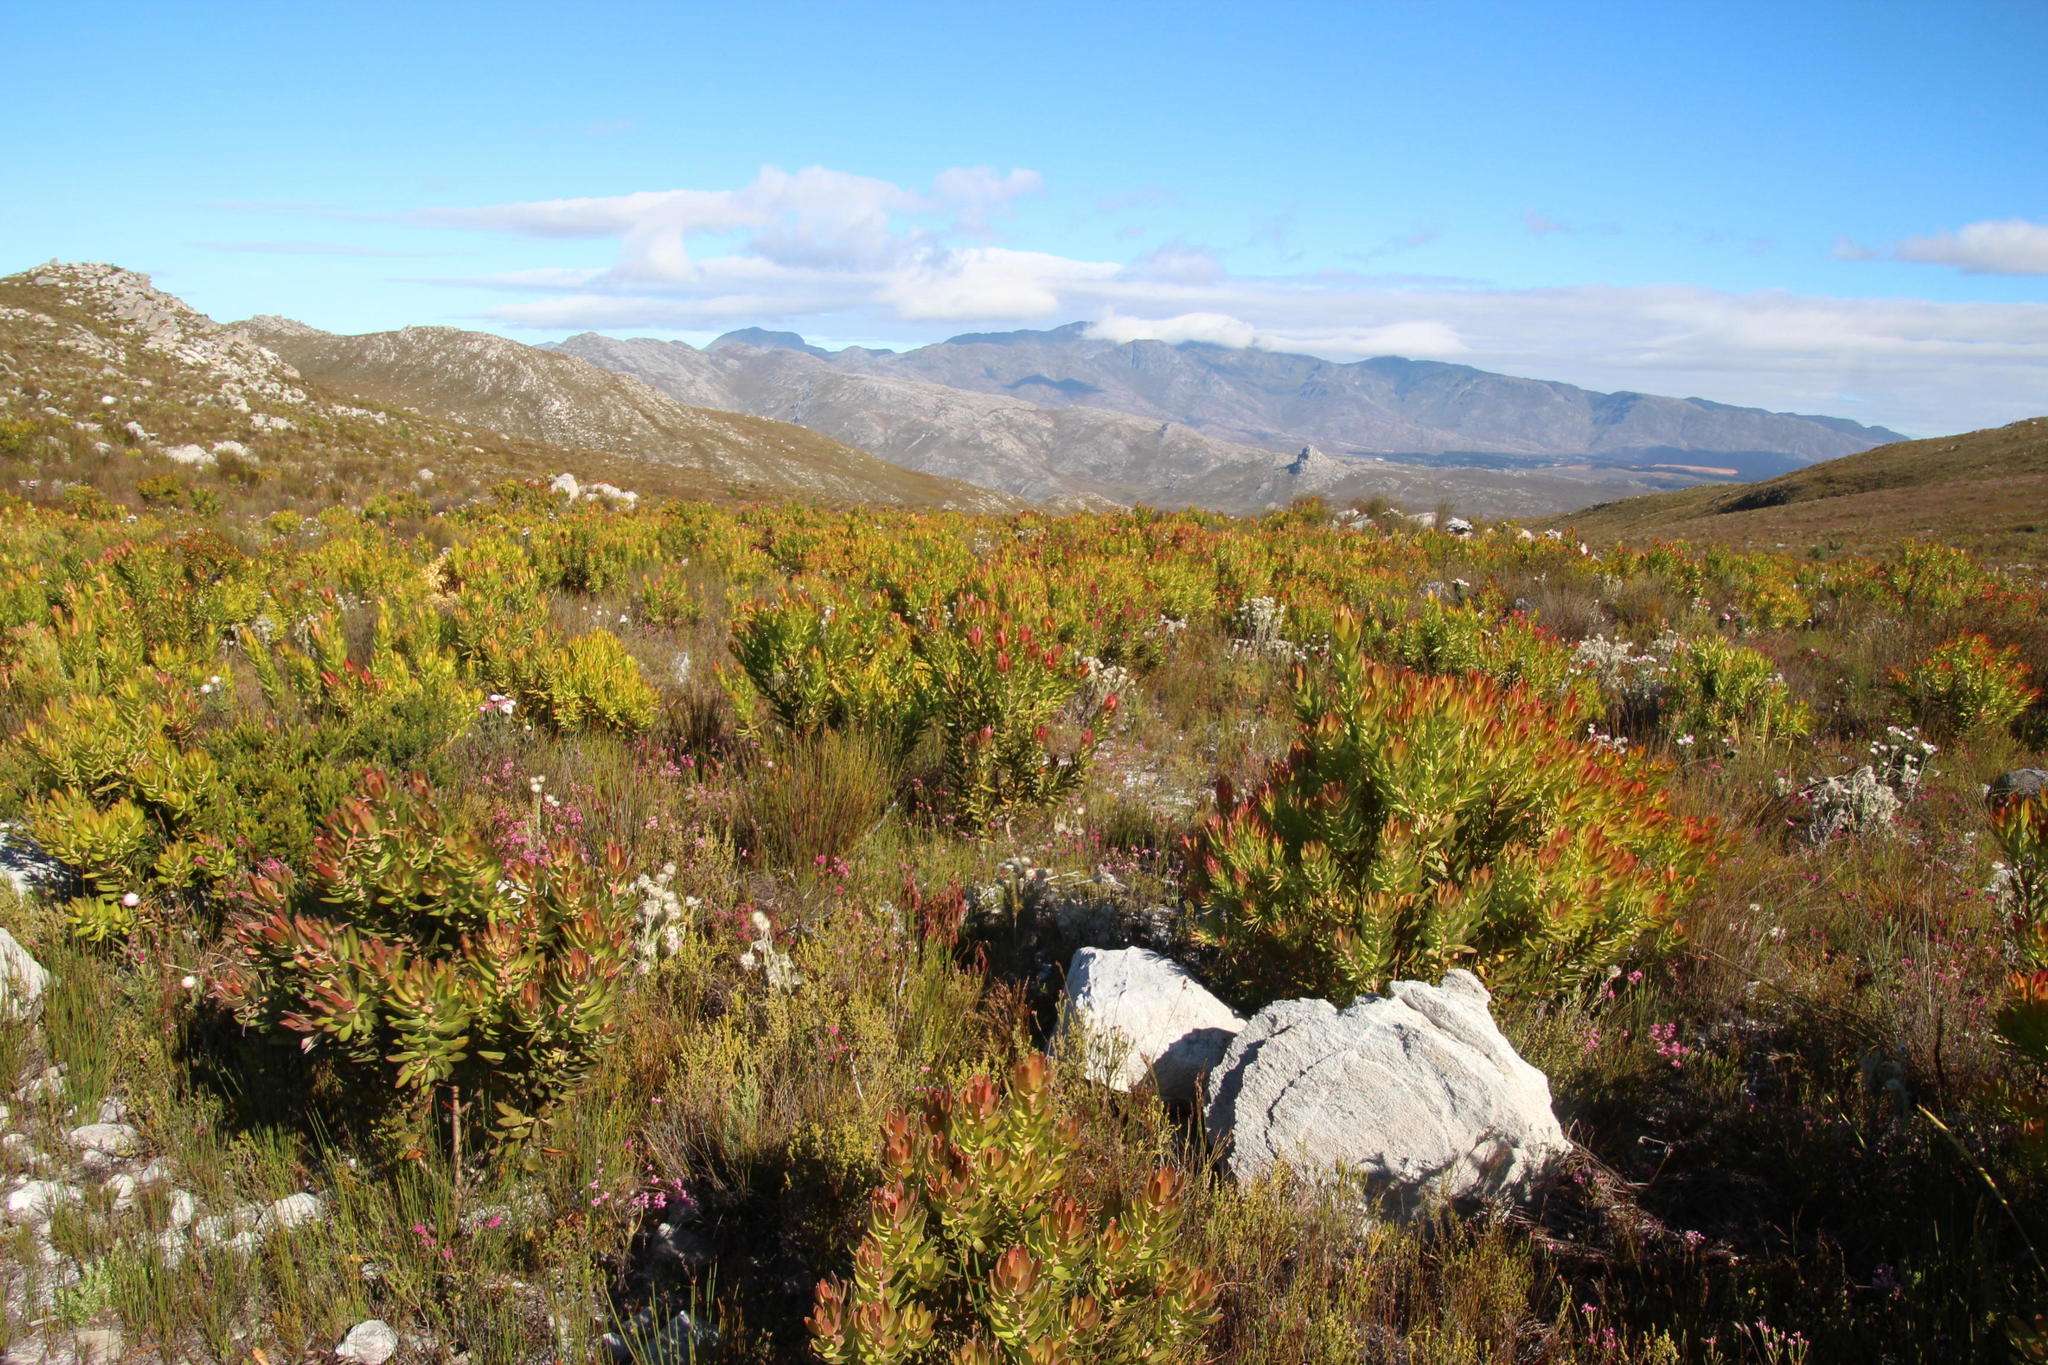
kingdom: Plantae
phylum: Tracheophyta
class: Magnoliopsida
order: Proteales
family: Proteaceae
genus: Leucadendron
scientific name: Leucadendron microcephalum
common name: Oilbract conebush
